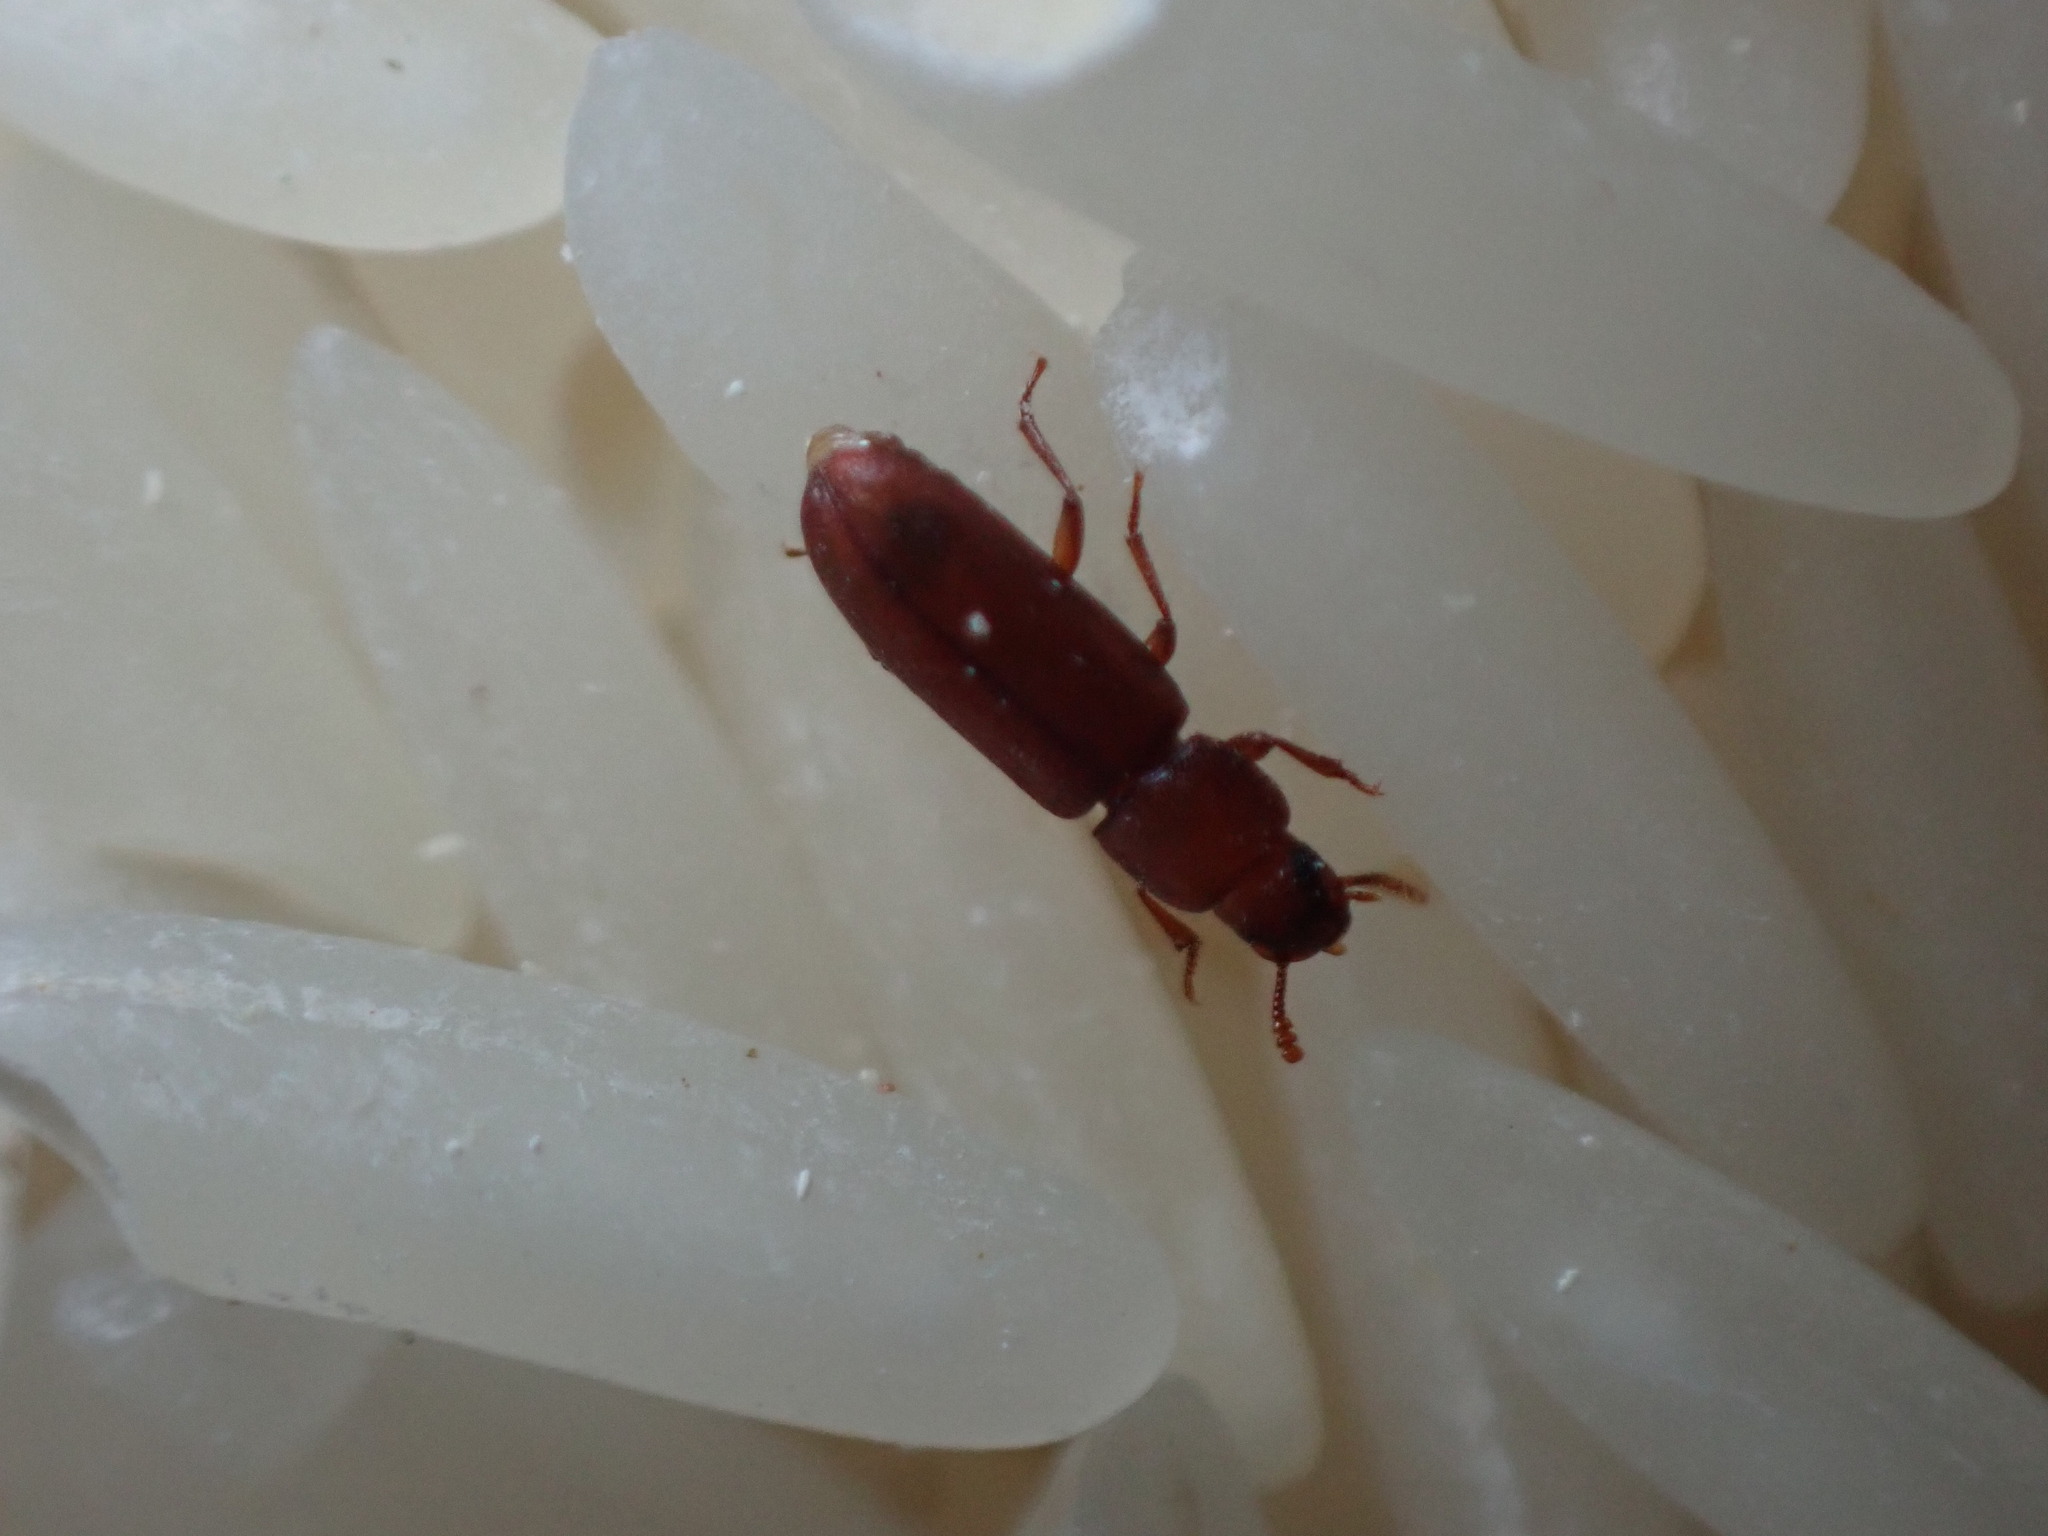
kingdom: Animalia
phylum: Arthropoda
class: Insecta
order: Coleoptera
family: Tenebrionidae
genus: Tribolium
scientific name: Tribolium castaneum
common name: Rust-red flour beetle
